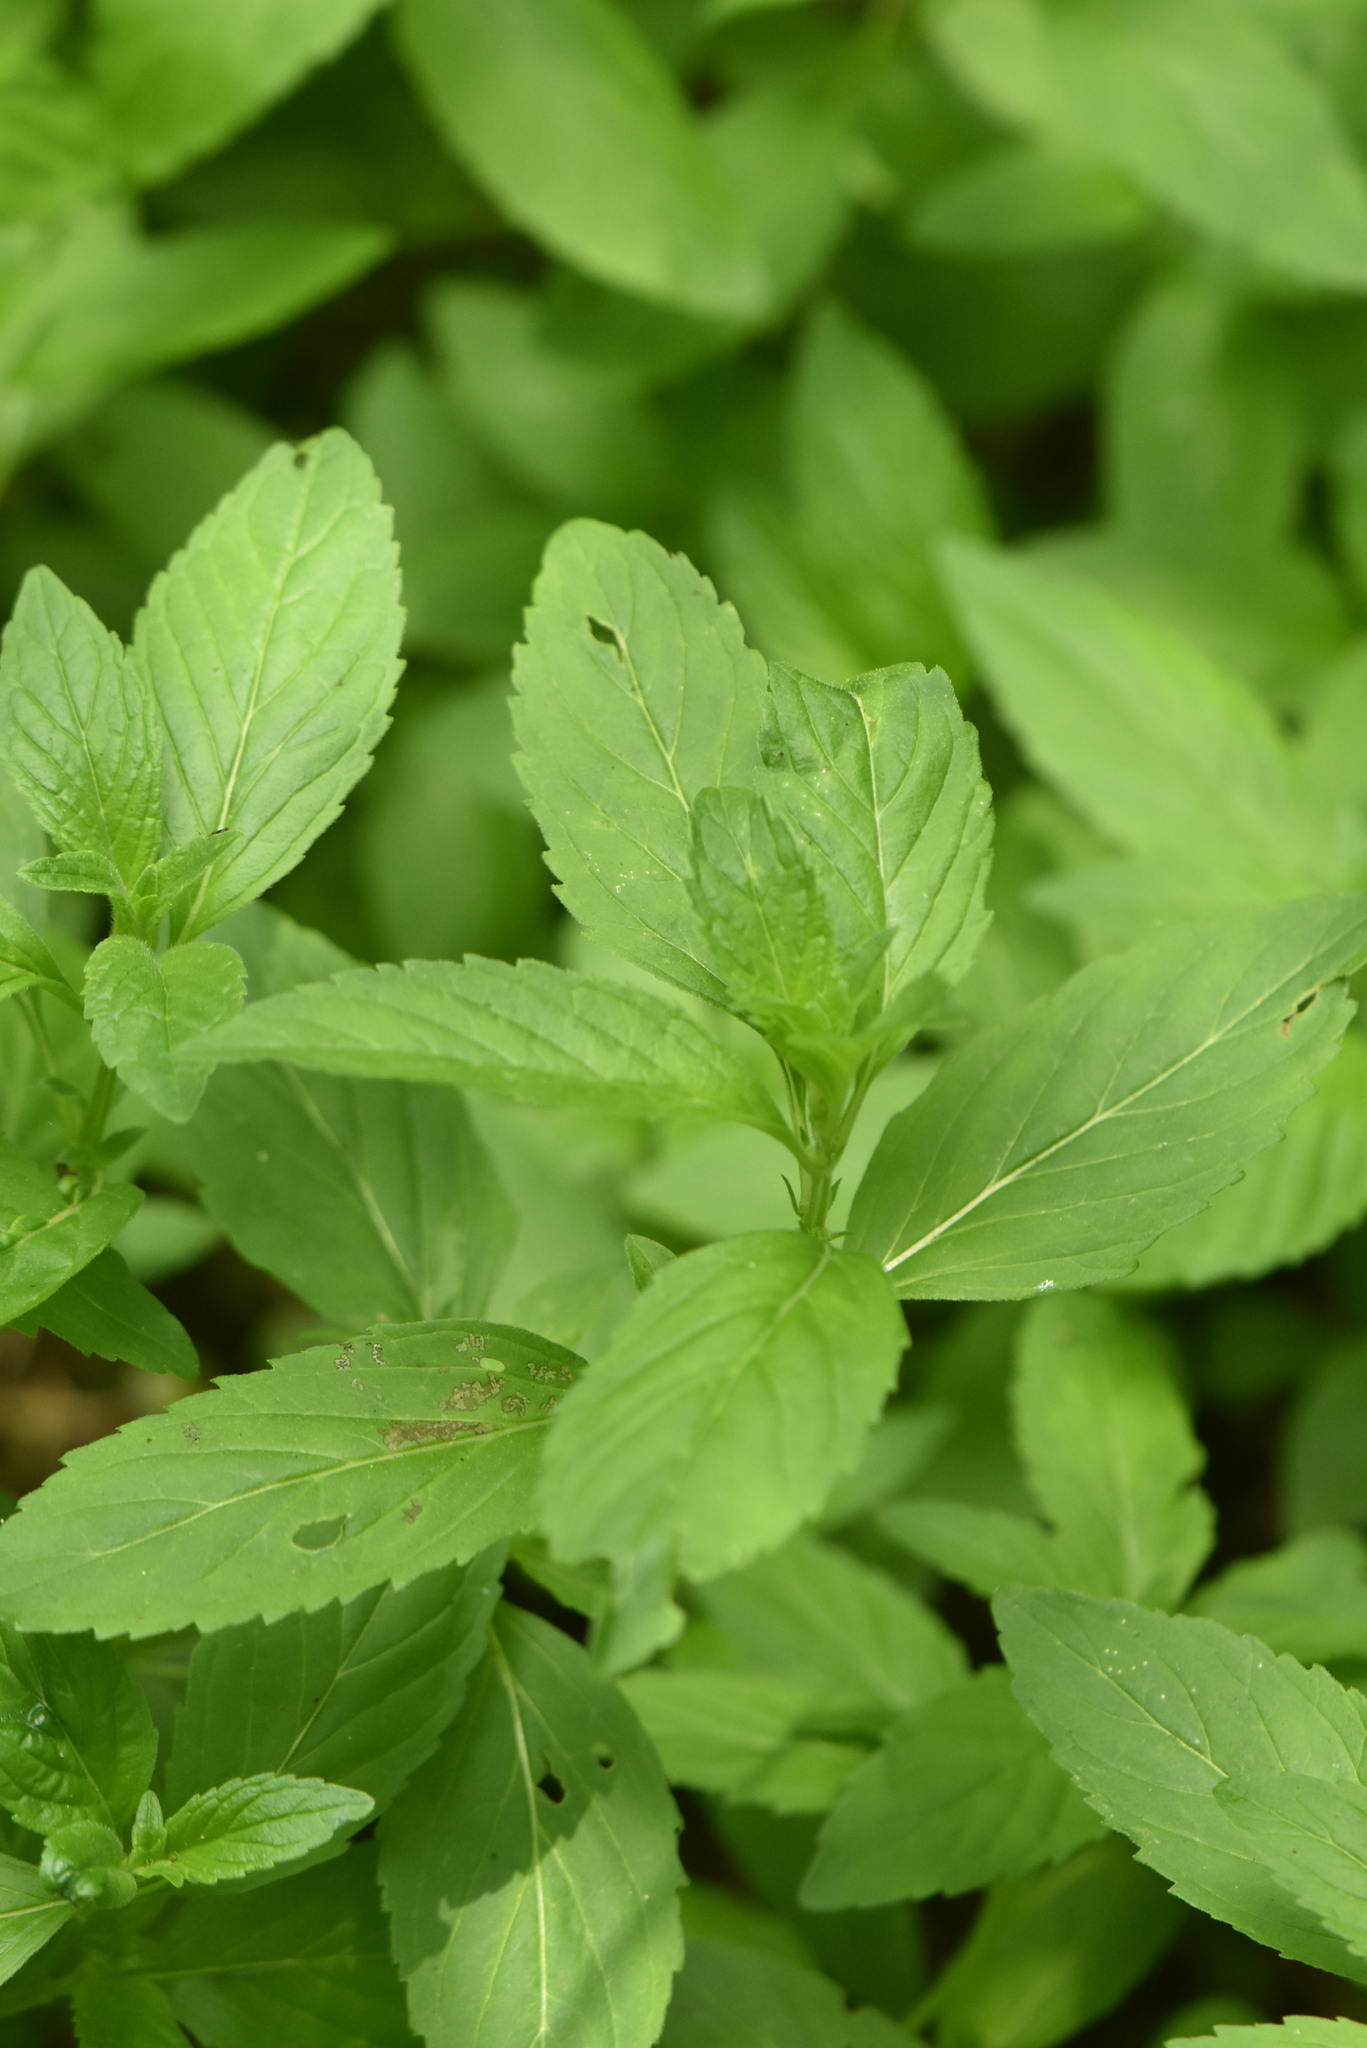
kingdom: Plantae
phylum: Tracheophyta
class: Magnoliopsida
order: Lamiales
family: Lamiaceae
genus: Mentha
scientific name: Mentha arvensis
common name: Corn mint
